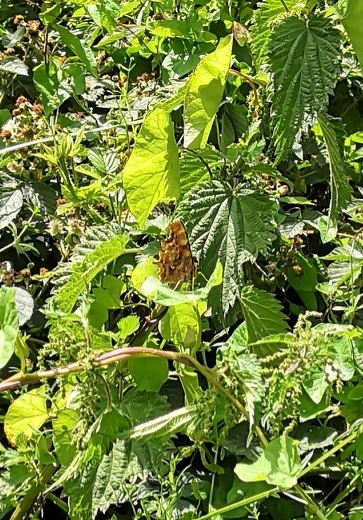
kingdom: Animalia
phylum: Arthropoda
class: Insecta
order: Lepidoptera
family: Nymphalidae
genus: Polygonia
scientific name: Polygonia c-album
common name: Comma
